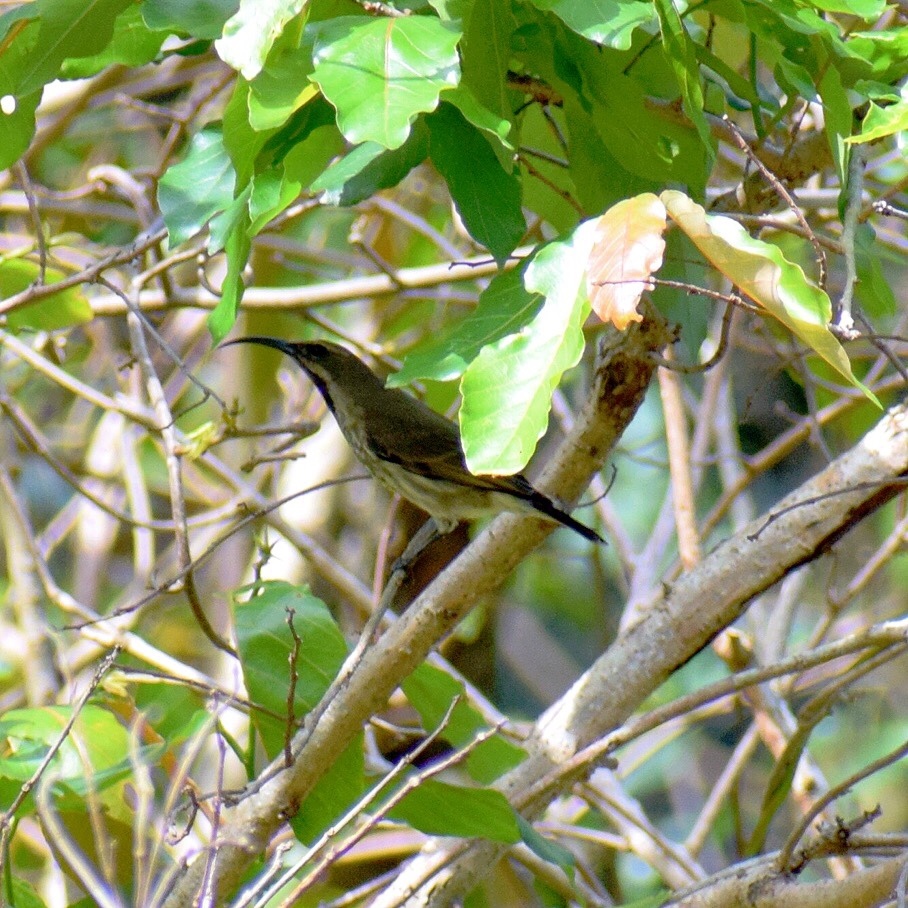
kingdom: Animalia
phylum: Chordata
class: Aves
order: Passeriformes
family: Nectariniidae
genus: Chalcomitra
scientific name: Chalcomitra amethystina
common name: Amethyst sunbird
